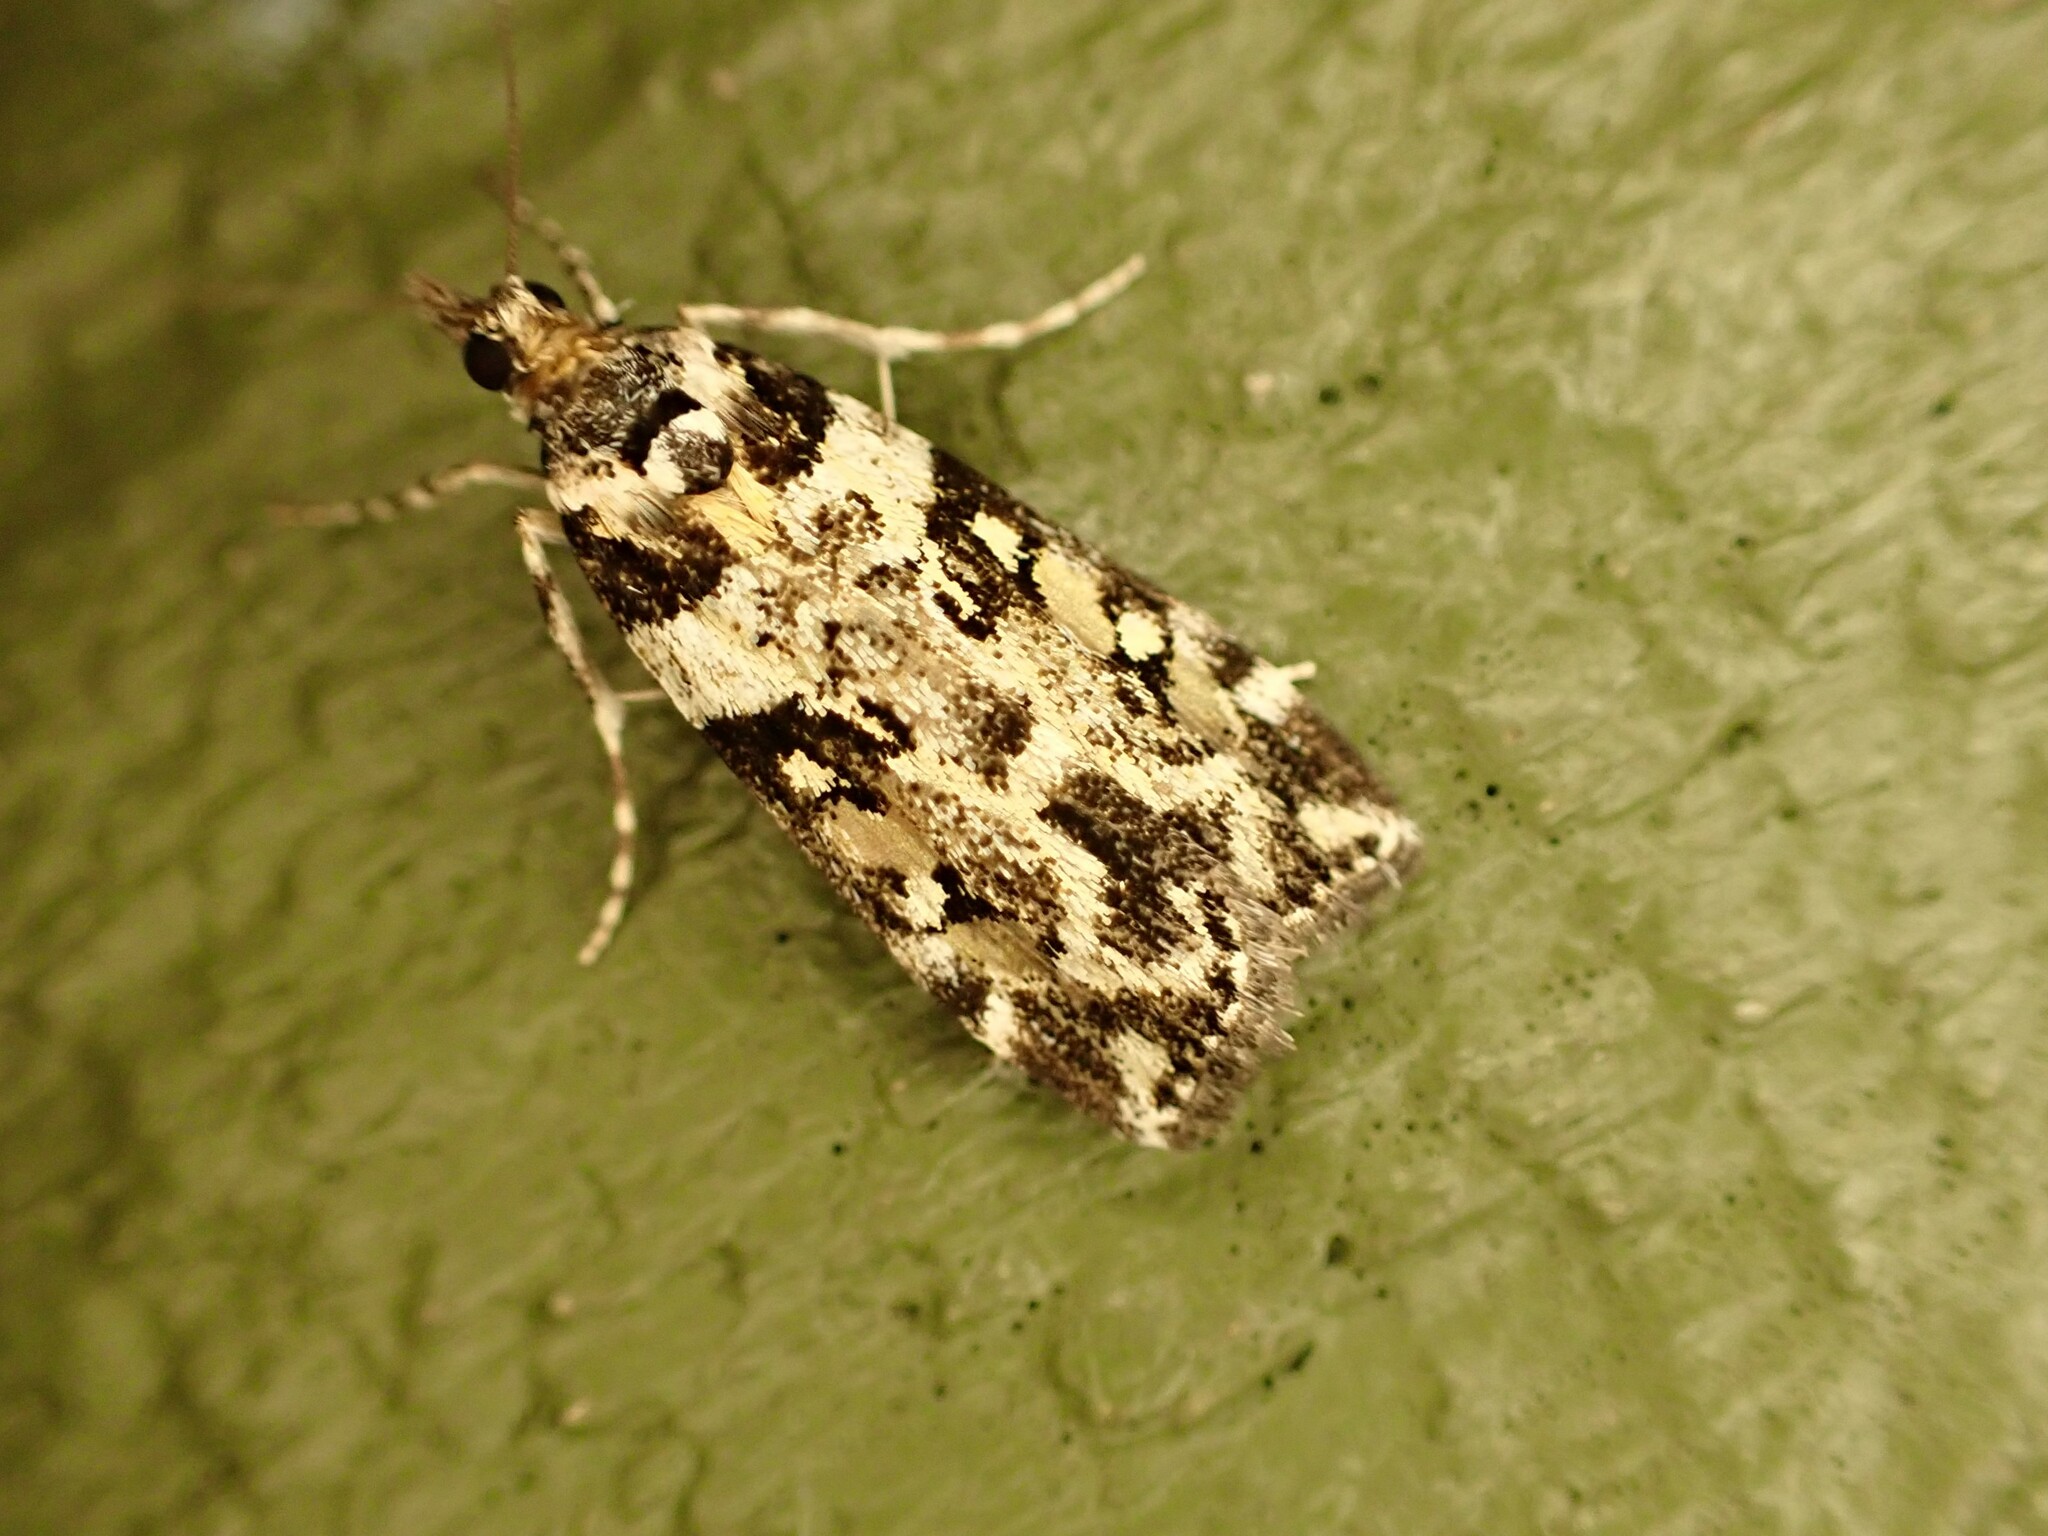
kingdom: Animalia
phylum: Arthropoda
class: Insecta
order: Lepidoptera
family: Crambidae
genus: Eudonia
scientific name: Eudonia diphtheralis
